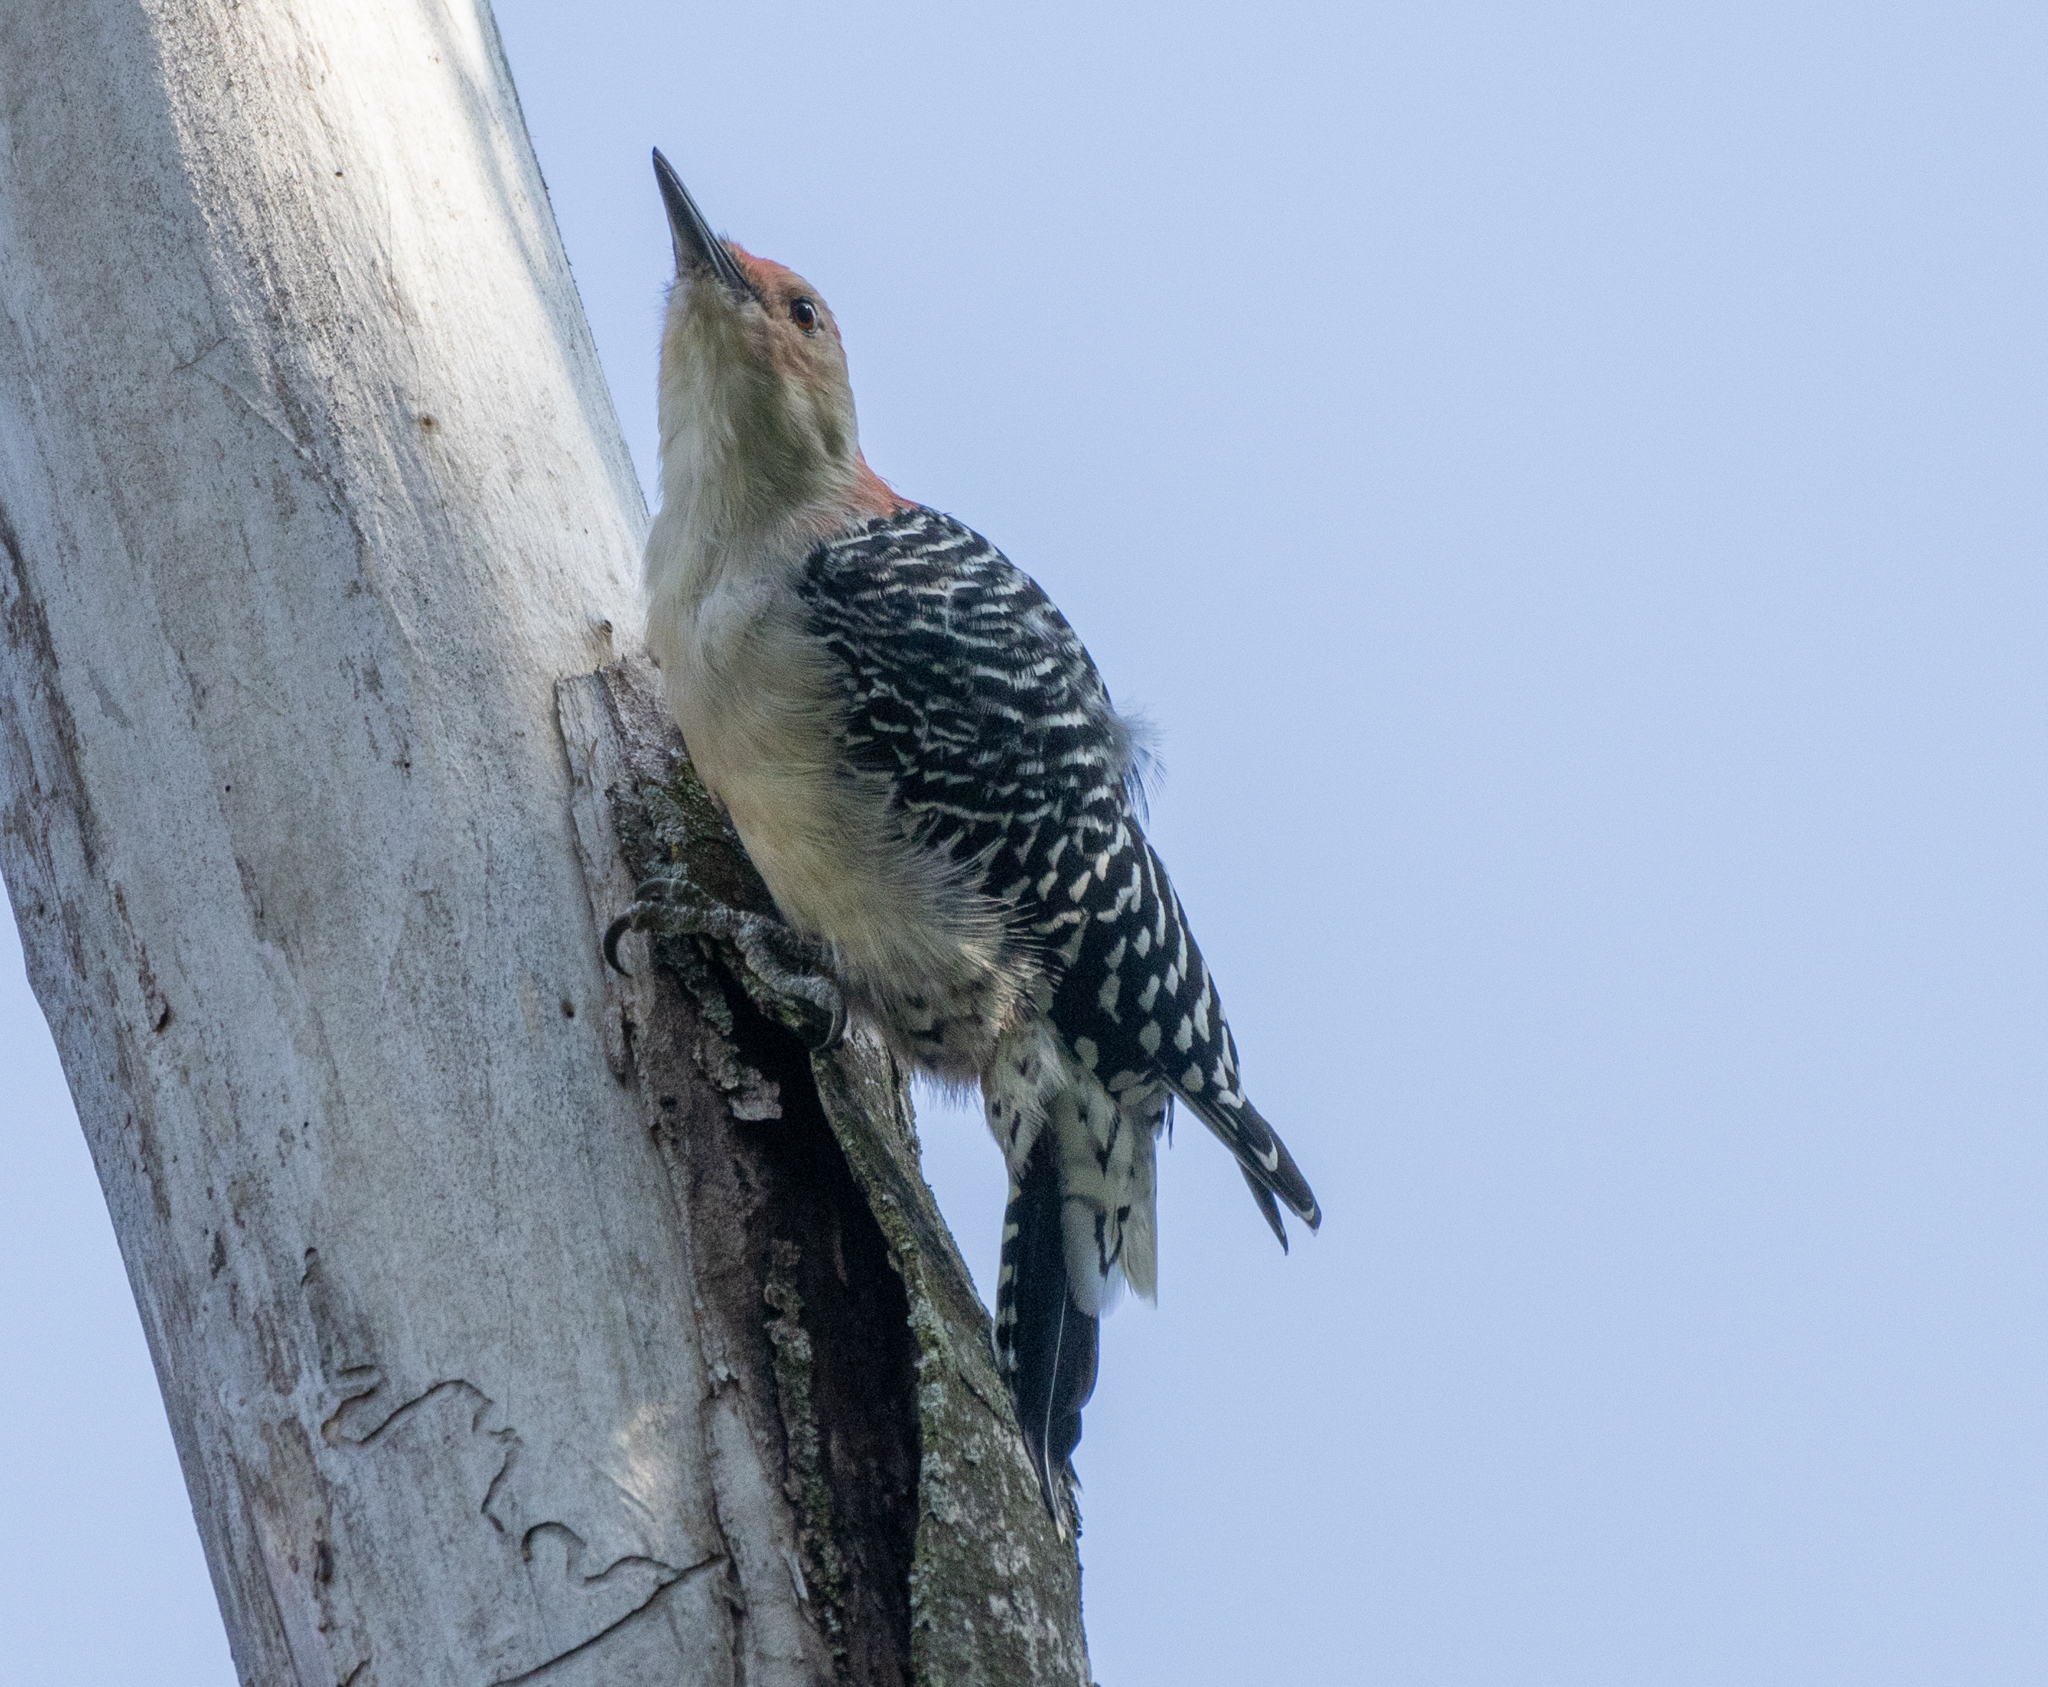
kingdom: Animalia
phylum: Chordata
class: Aves
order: Piciformes
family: Picidae
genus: Melanerpes
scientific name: Melanerpes carolinus
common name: Red-bellied woodpecker
